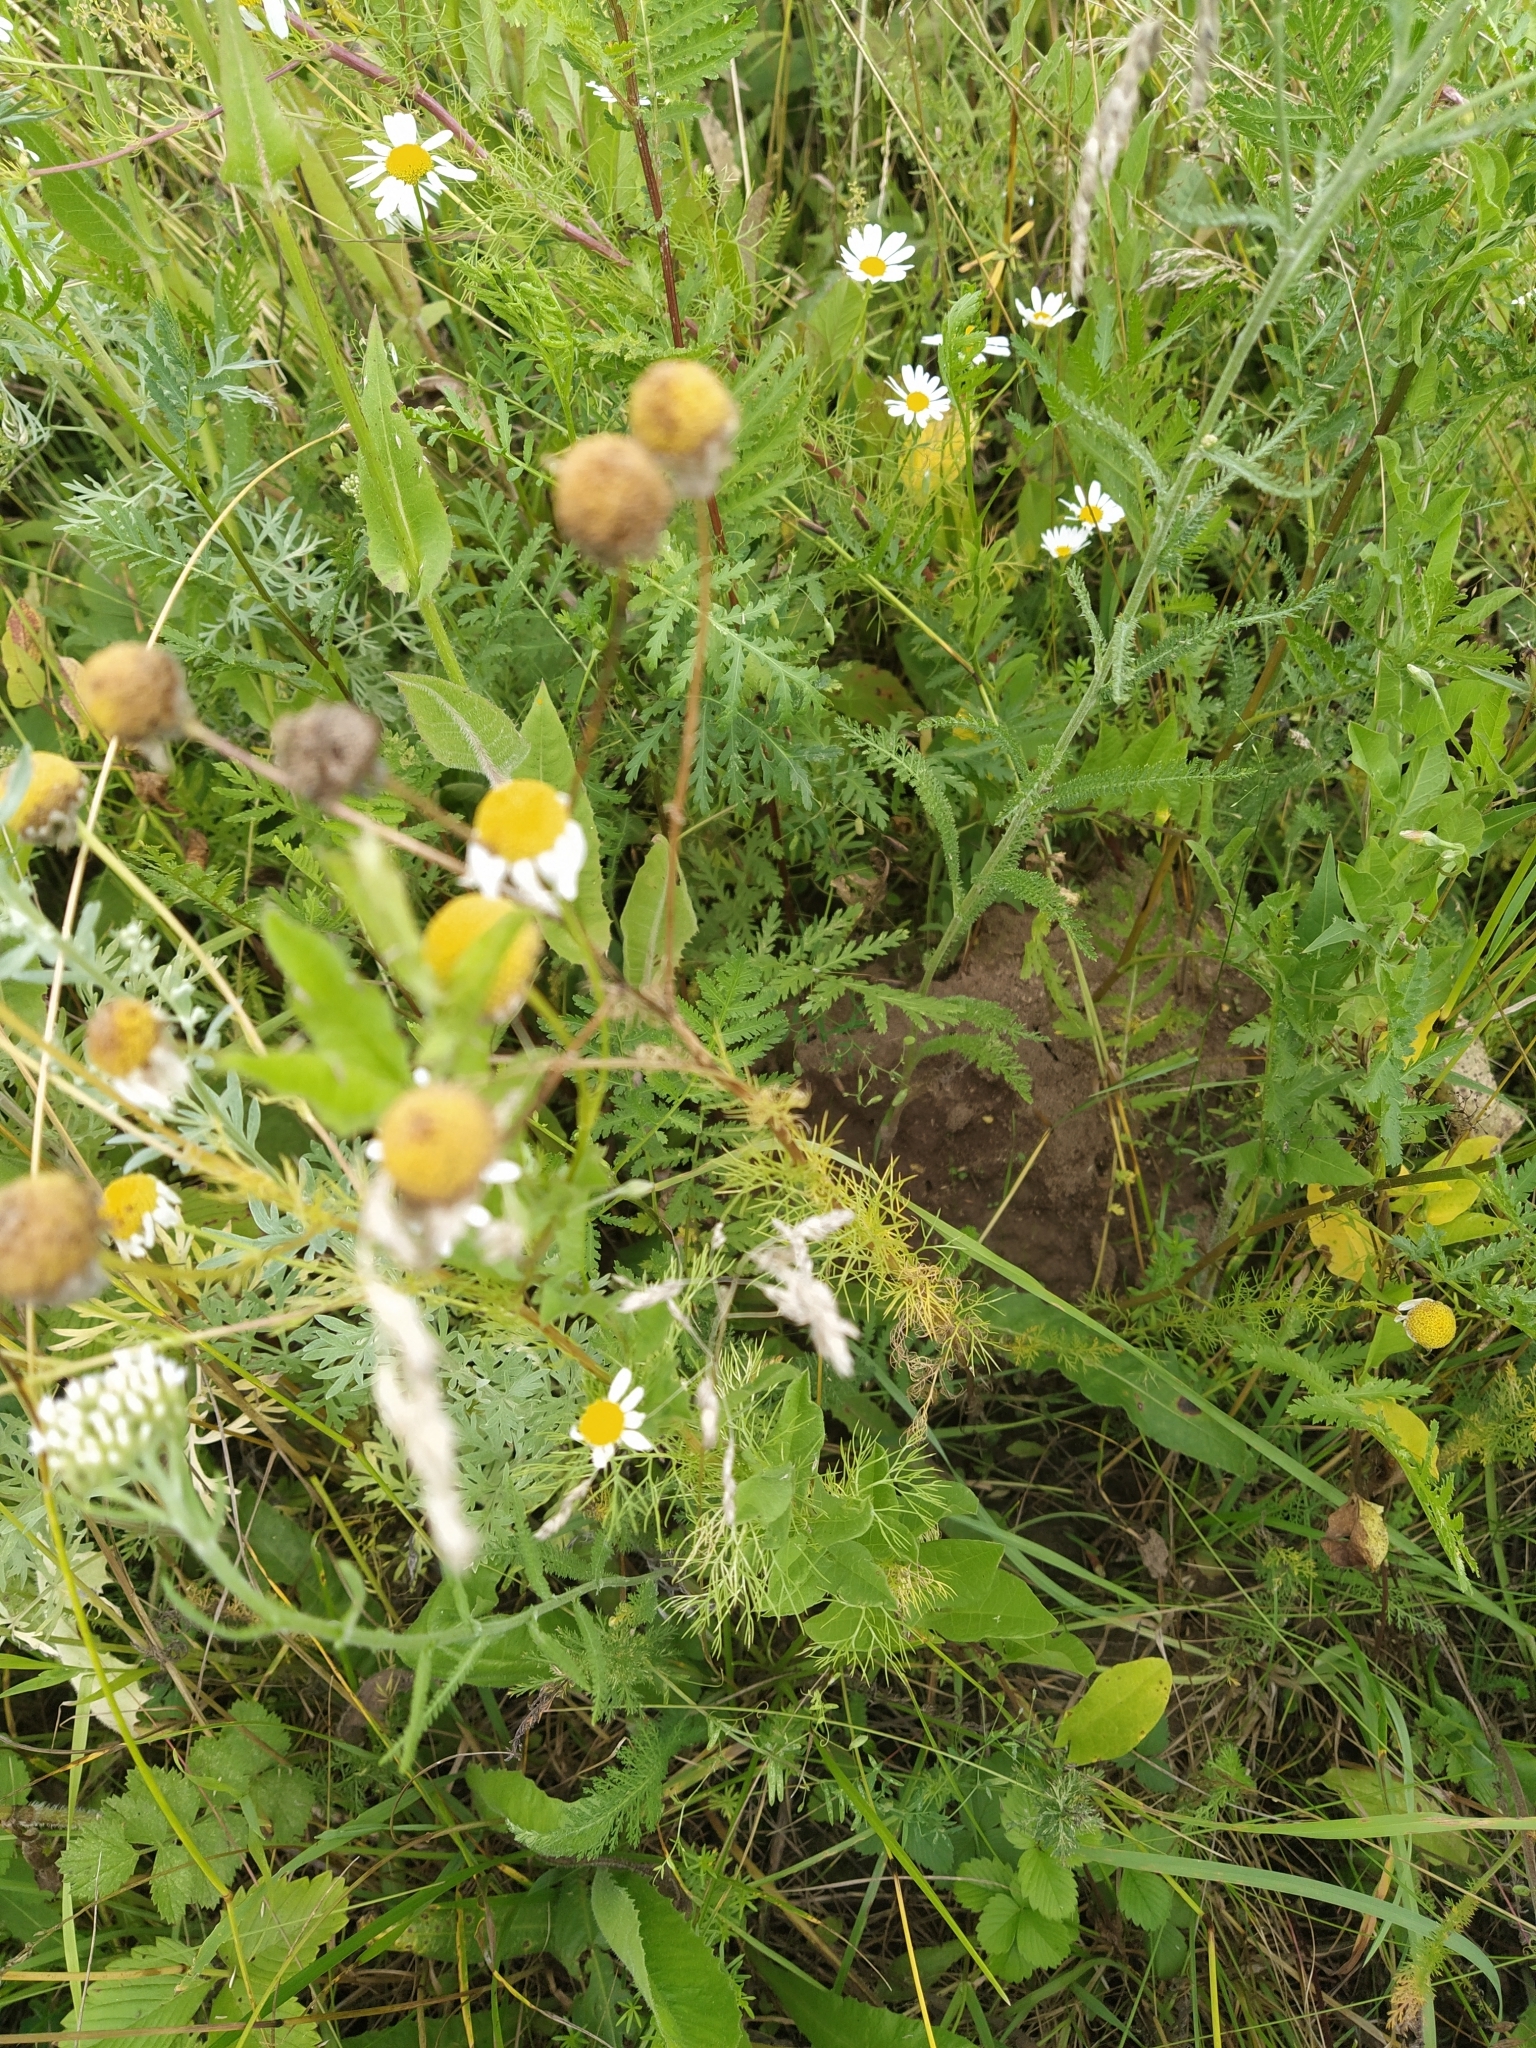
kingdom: Plantae
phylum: Tracheophyta
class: Magnoliopsida
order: Asterales
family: Asteraceae
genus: Tripleurospermum
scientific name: Tripleurospermum inodorum
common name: Scentless mayweed
